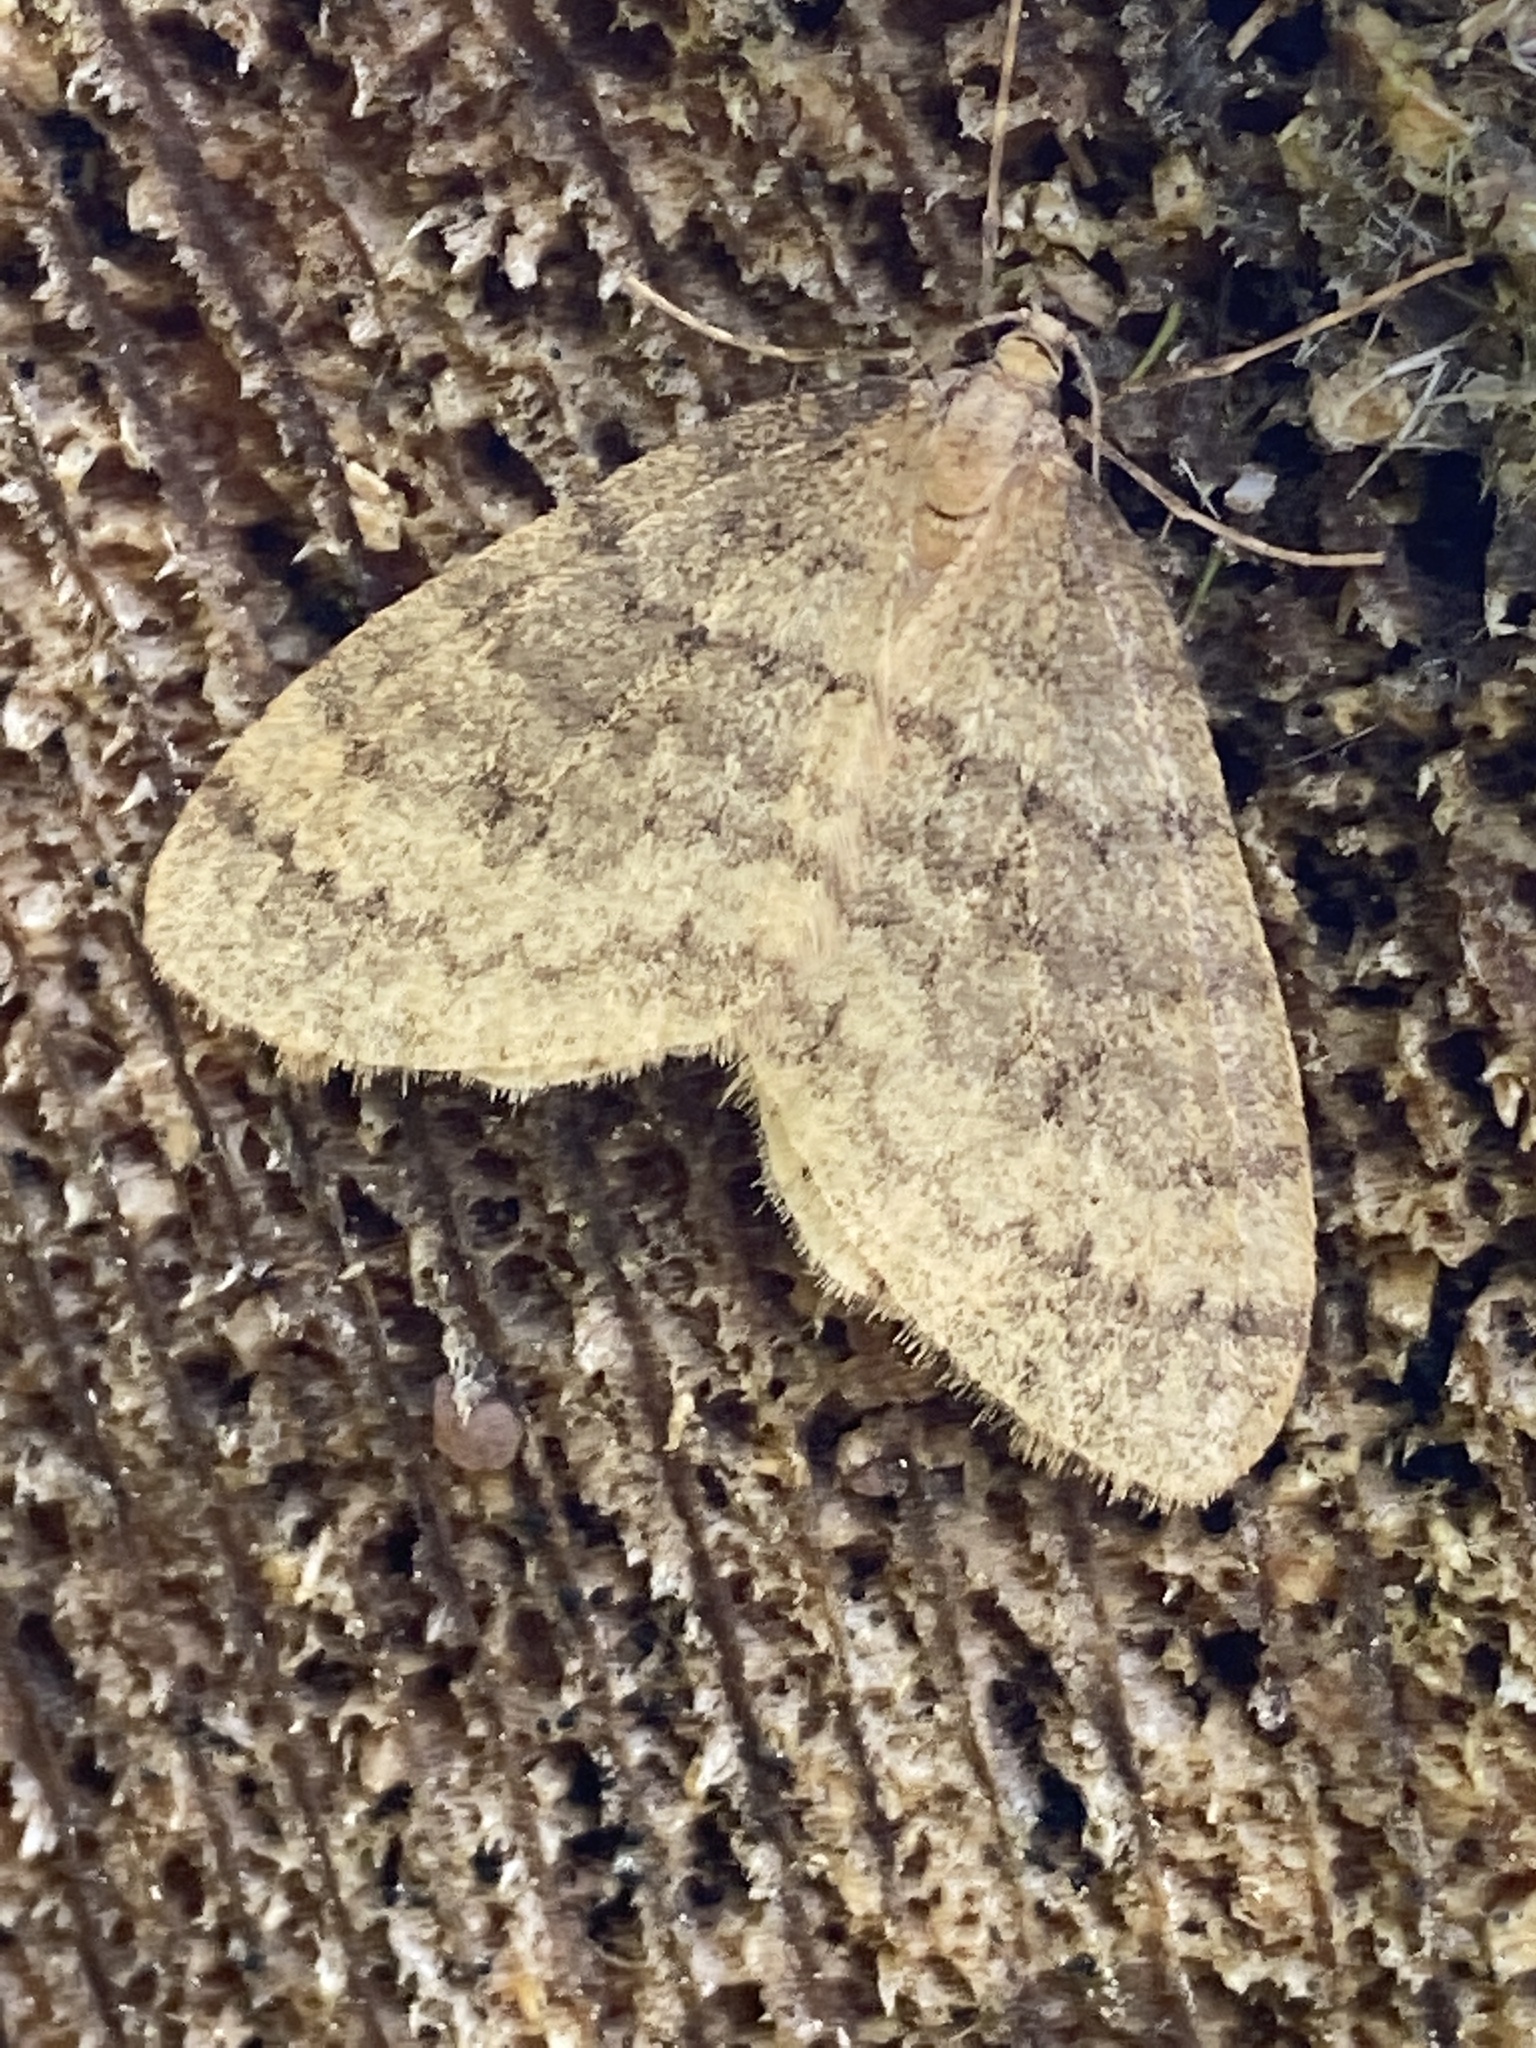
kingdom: Animalia
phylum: Arthropoda
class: Insecta
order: Lepidoptera
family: Geometridae
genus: Operophtera
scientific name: Operophtera brumata
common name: Winter moth
